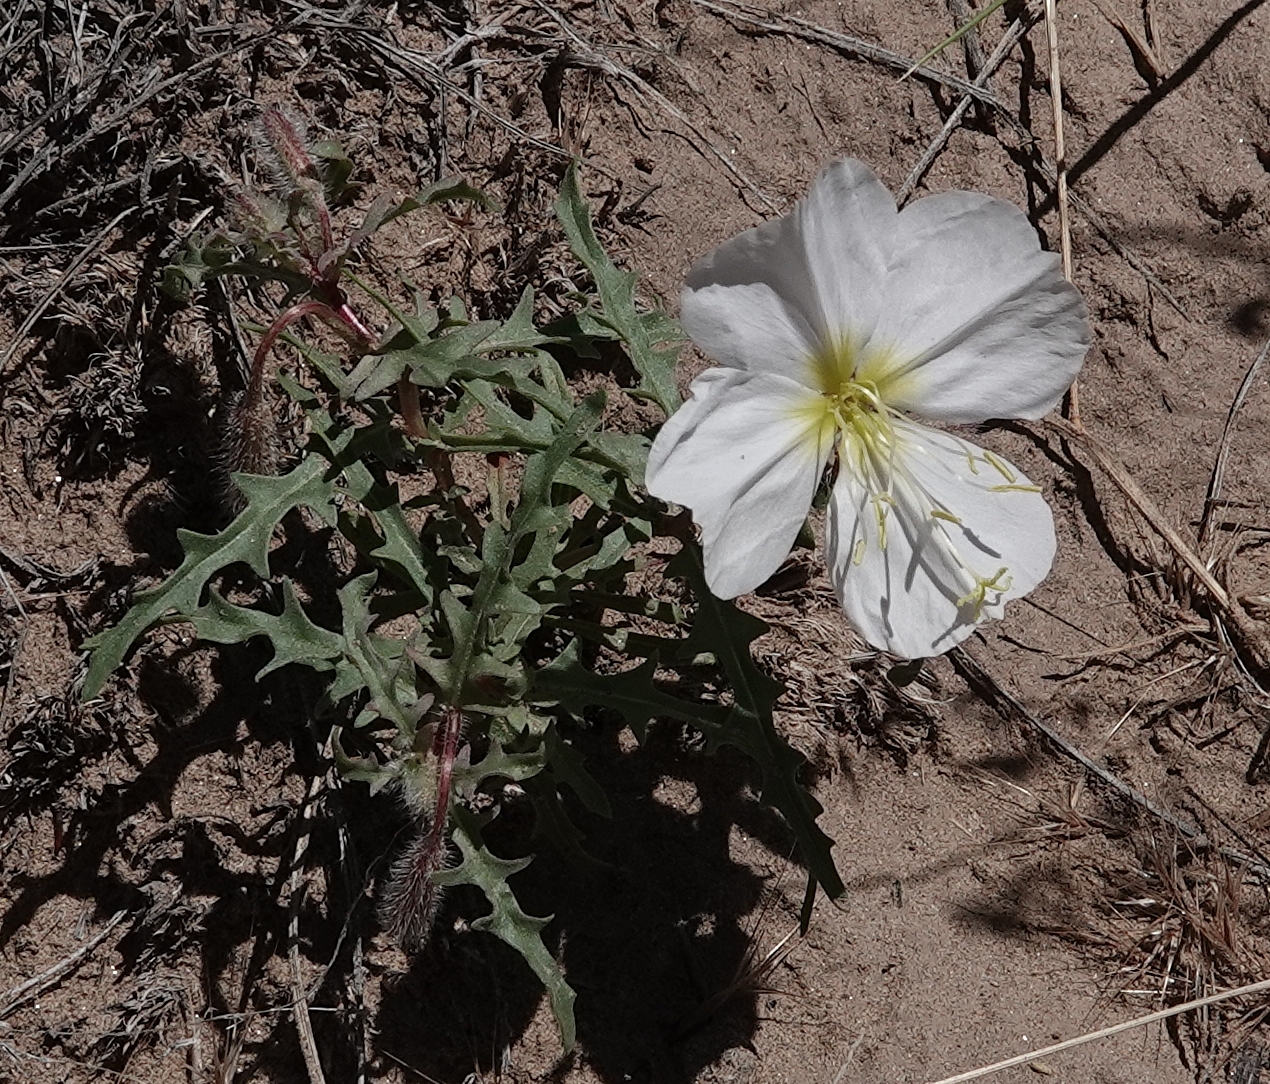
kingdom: Plantae
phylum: Tracheophyta
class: Magnoliopsida
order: Myrtales
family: Onagraceae
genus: Oenothera
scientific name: Oenothera pallida
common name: Pale evening-primrose
